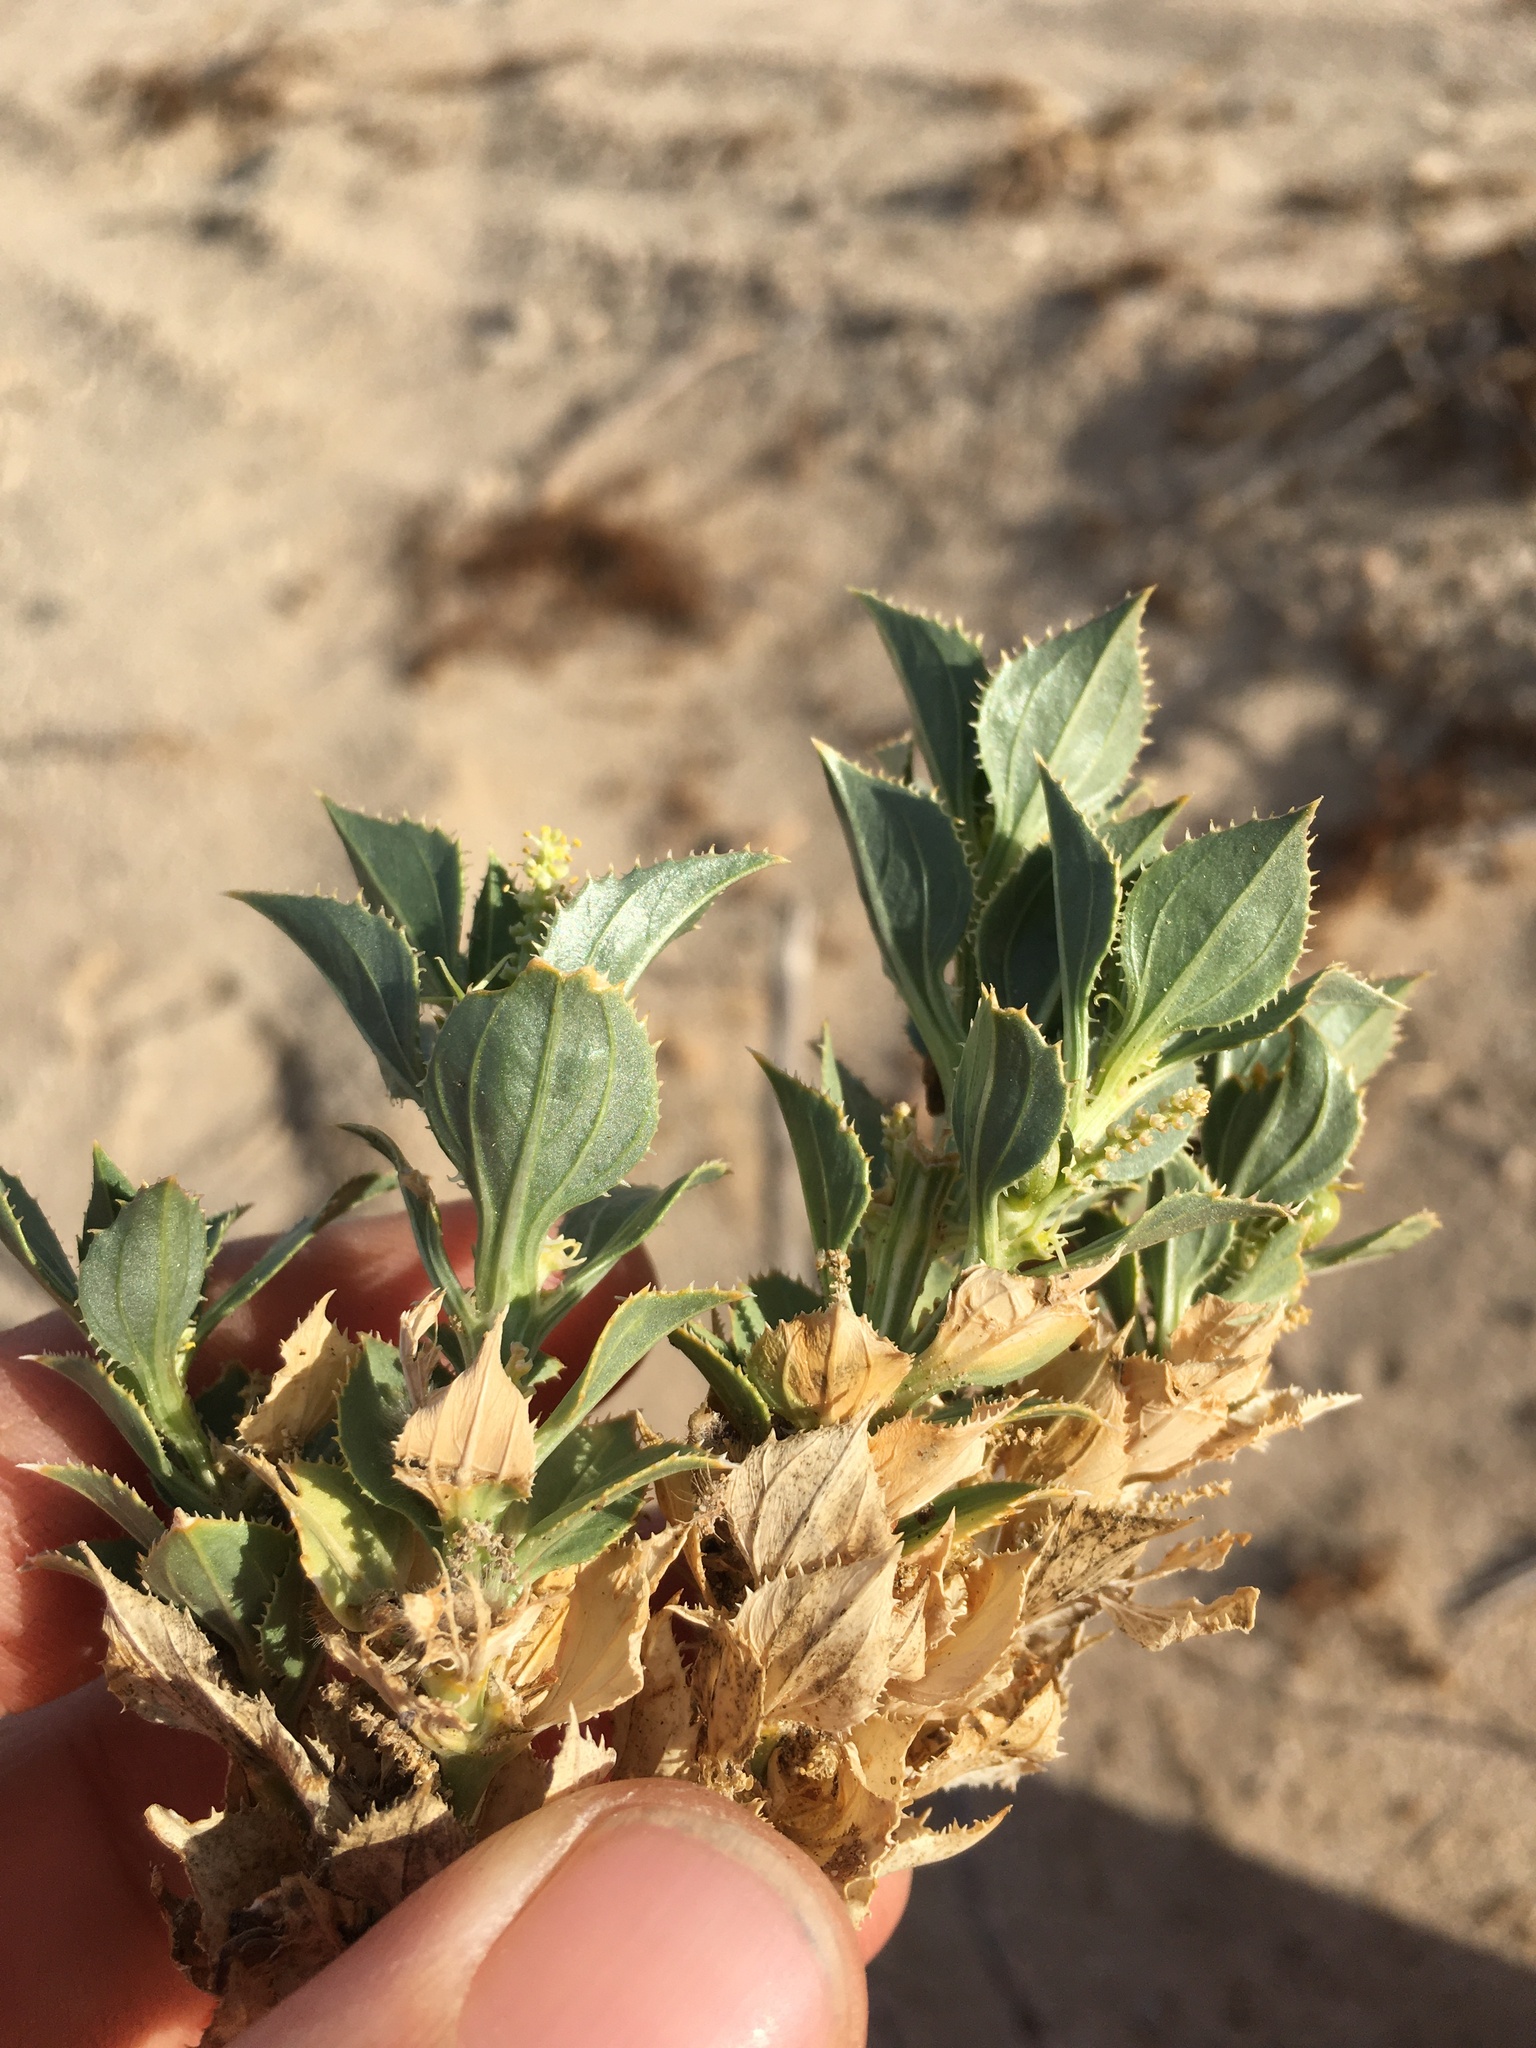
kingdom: Plantae
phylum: Tracheophyta
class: Magnoliopsida
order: Malpighiales
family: Euphorbiaceae
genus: Stillingia
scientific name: Stillingia spinulosa
